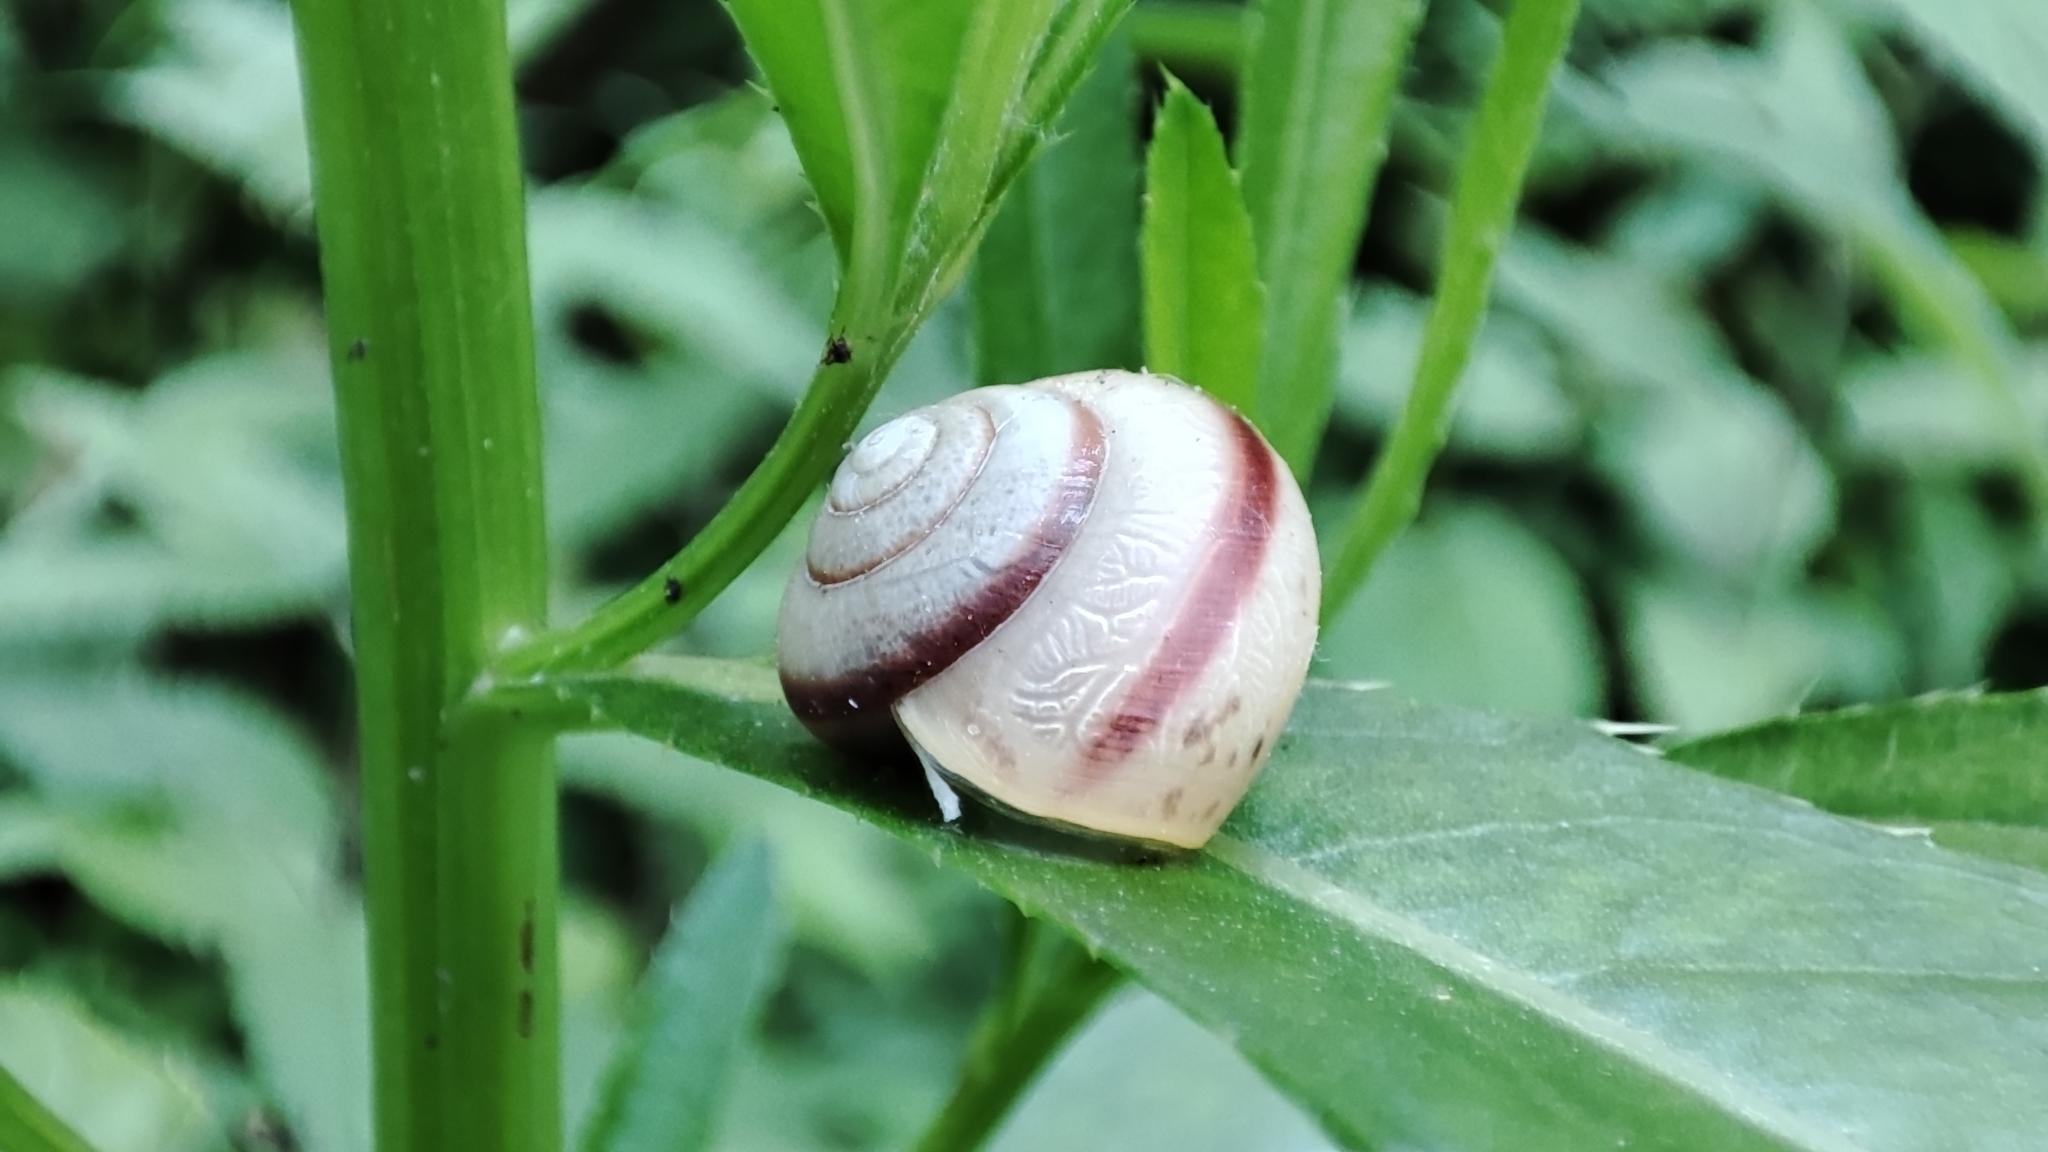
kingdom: Animalia
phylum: Mollusca
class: Gastropoda
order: Stylommatophora
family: Camaenidae
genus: Fruticicola
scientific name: Fruticicola fruticum
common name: Bush snail
